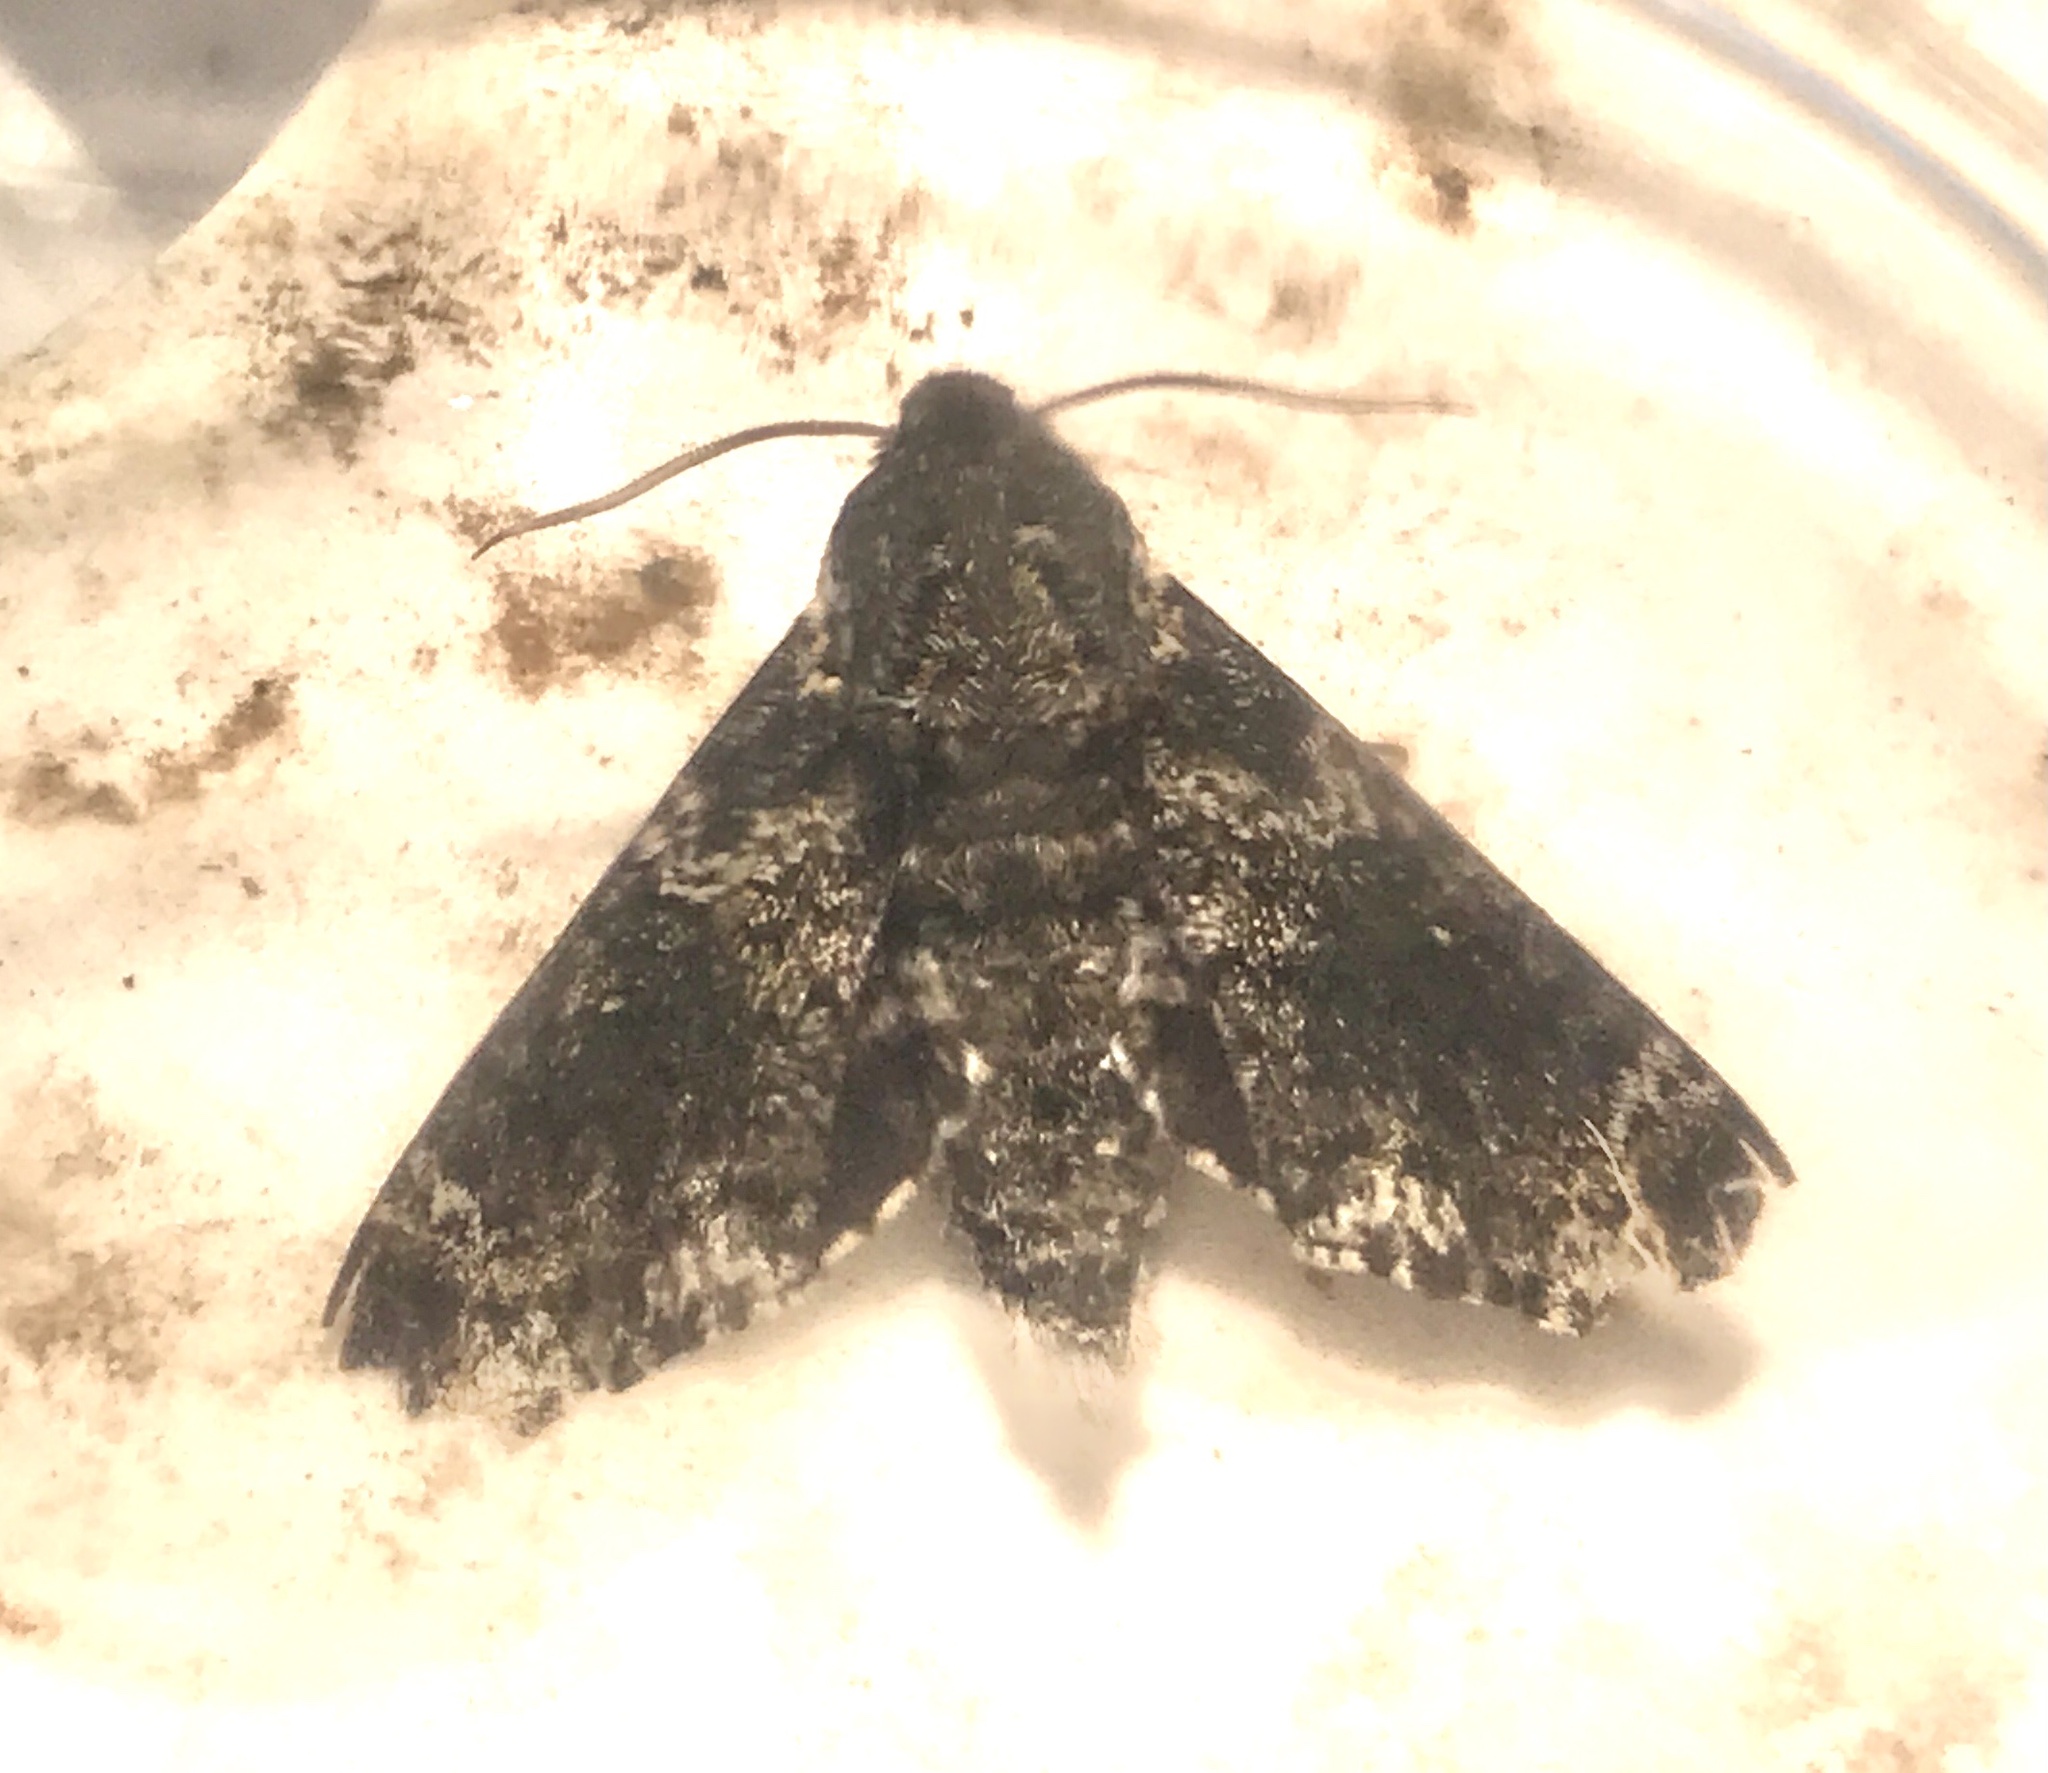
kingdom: Animalia
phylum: Arthropoda
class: Insecta
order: Lepidoptera
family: Sphingidae
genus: Dolba
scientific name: Dolba hyloeus
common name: Pawpaw sphinx
